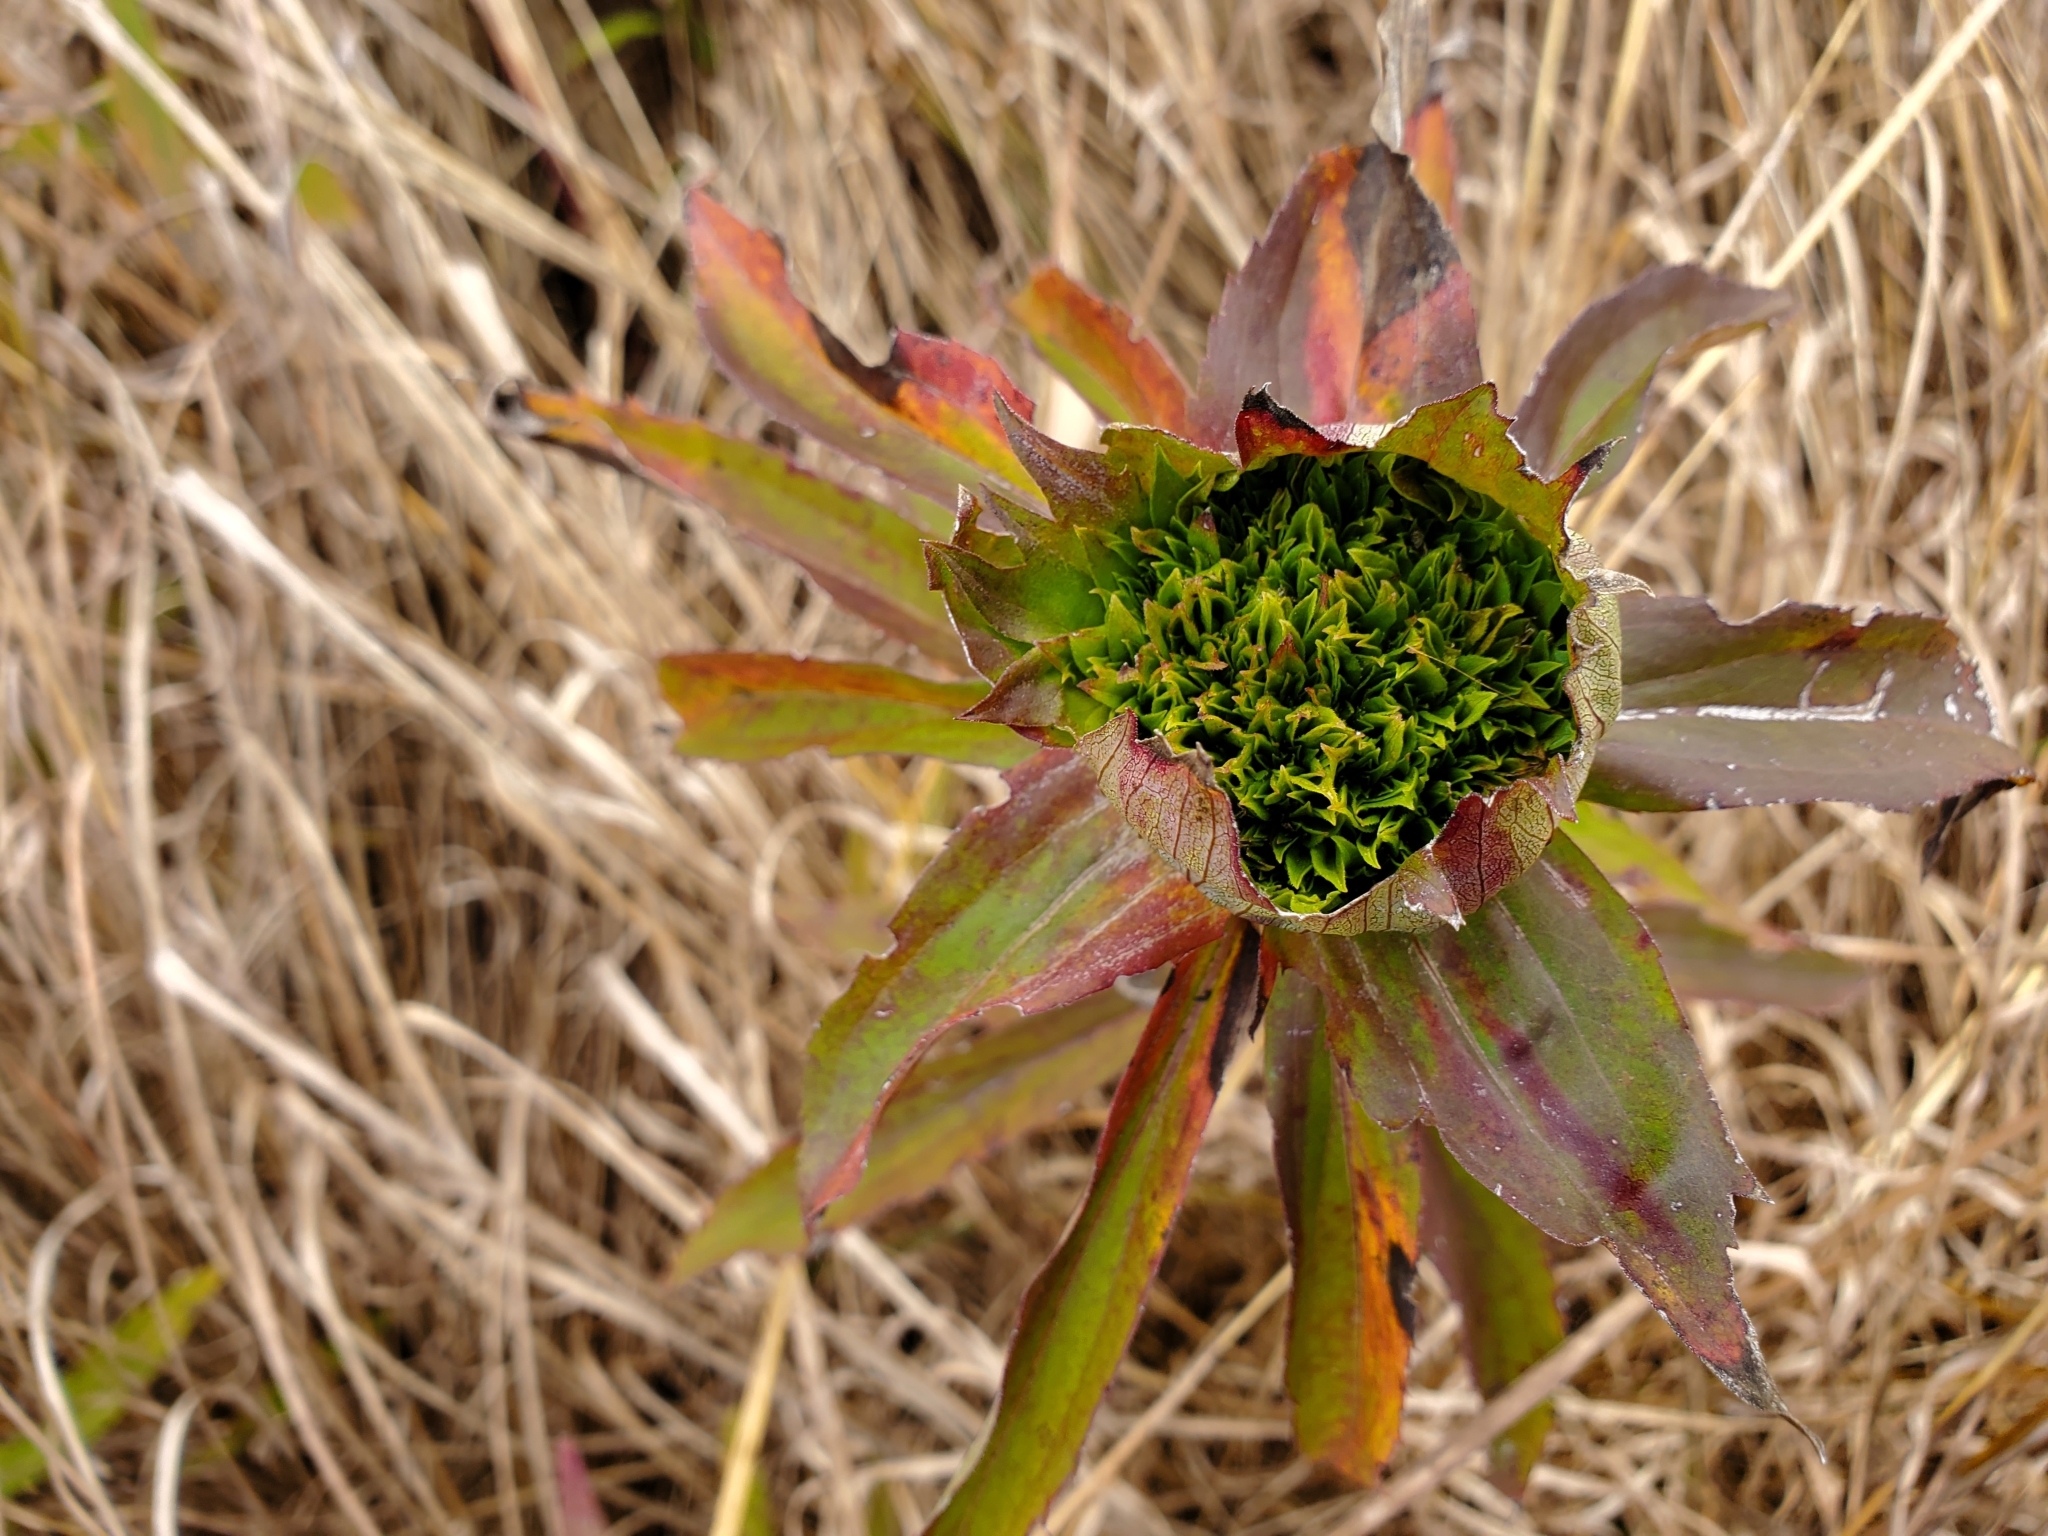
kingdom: Animalia
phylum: Arthropoda
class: Insecta
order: Diptera
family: Cecidomyiidae
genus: Rhopalomyia
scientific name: Rhopalomyia capitata
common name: Giant goldenrod bunch gall midge
